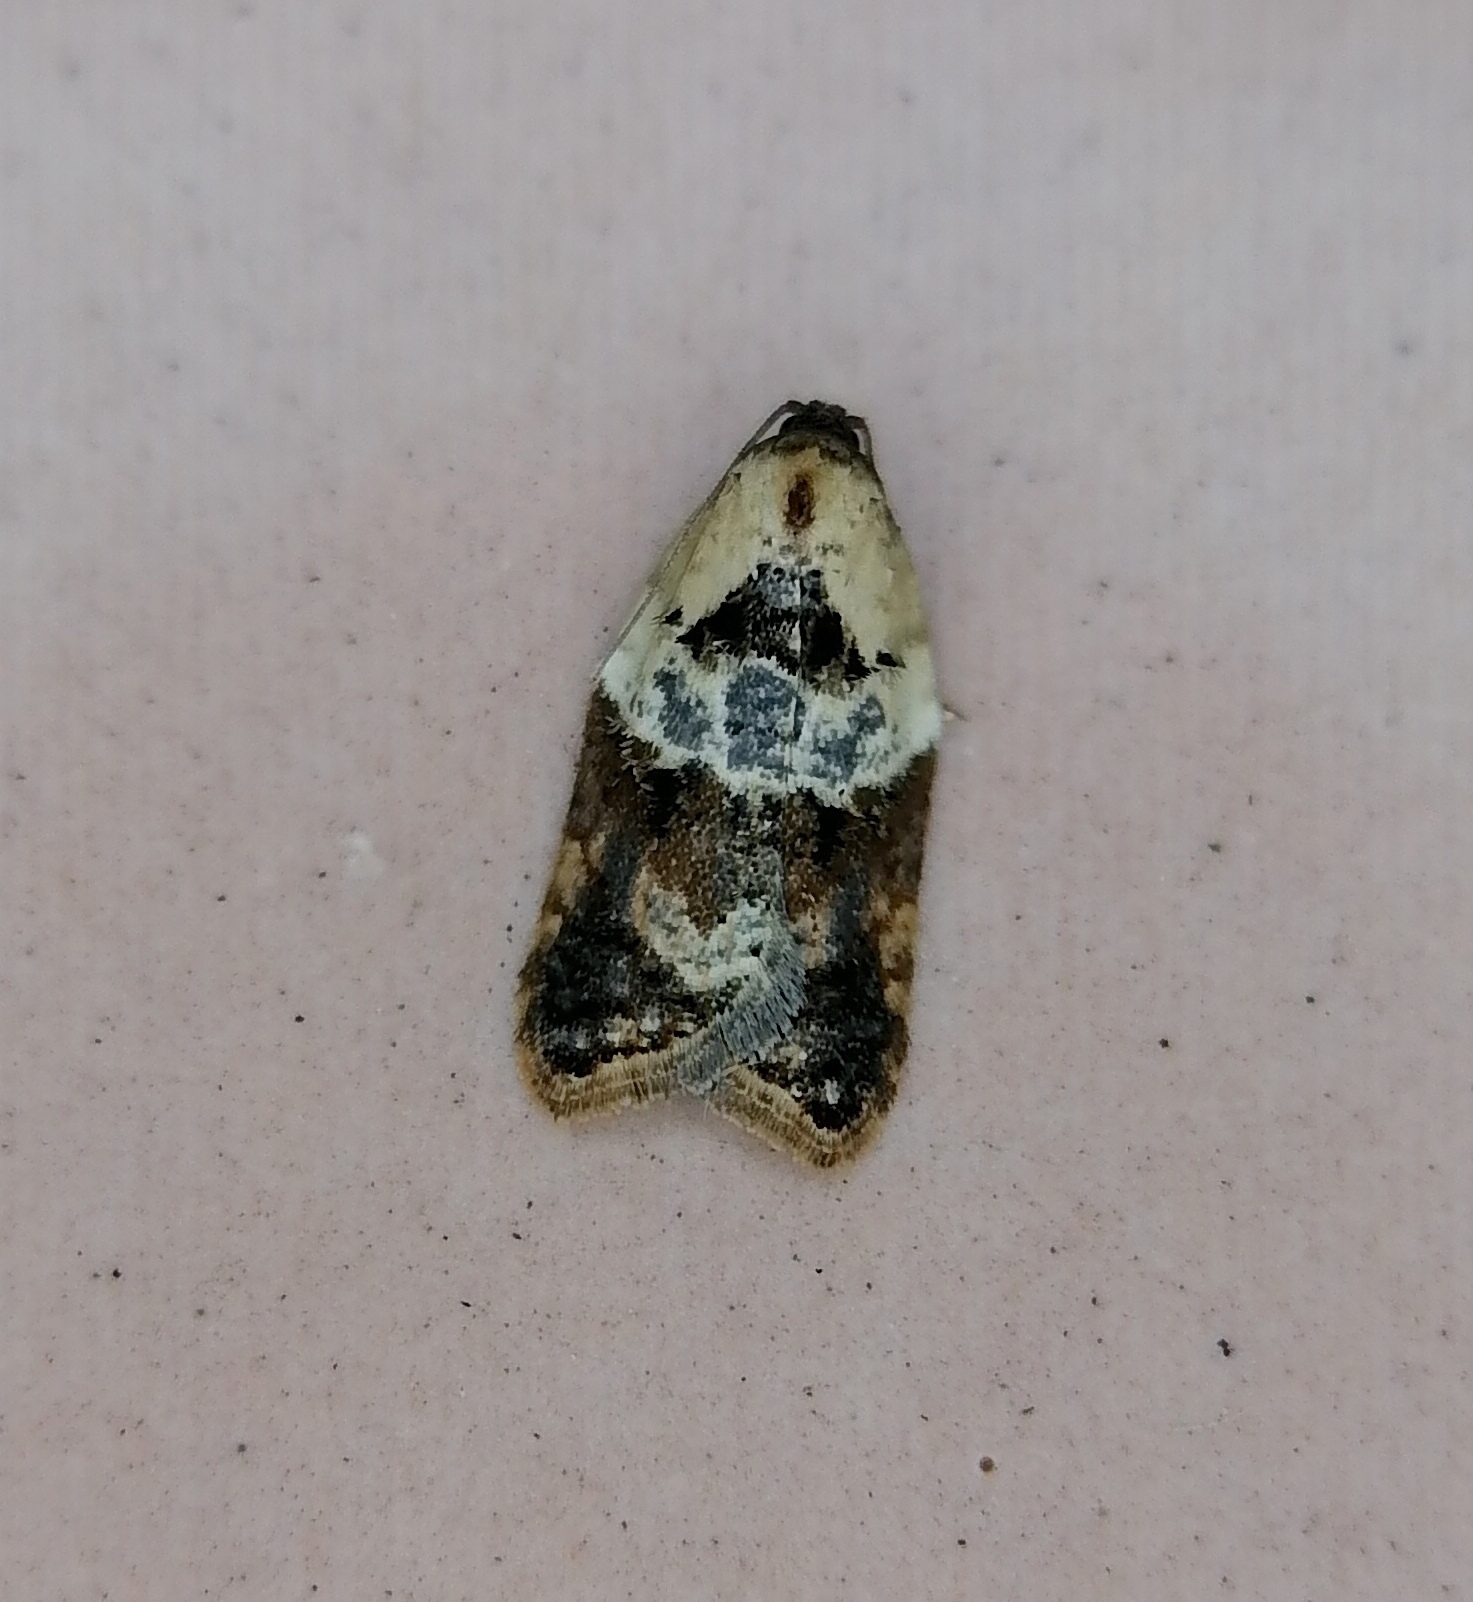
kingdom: Animalia
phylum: Arthropoda
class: Insecta
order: Lepidoptera
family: Tortricidae
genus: Acleris
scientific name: Acleris variegana
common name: Garden rose tortrix
